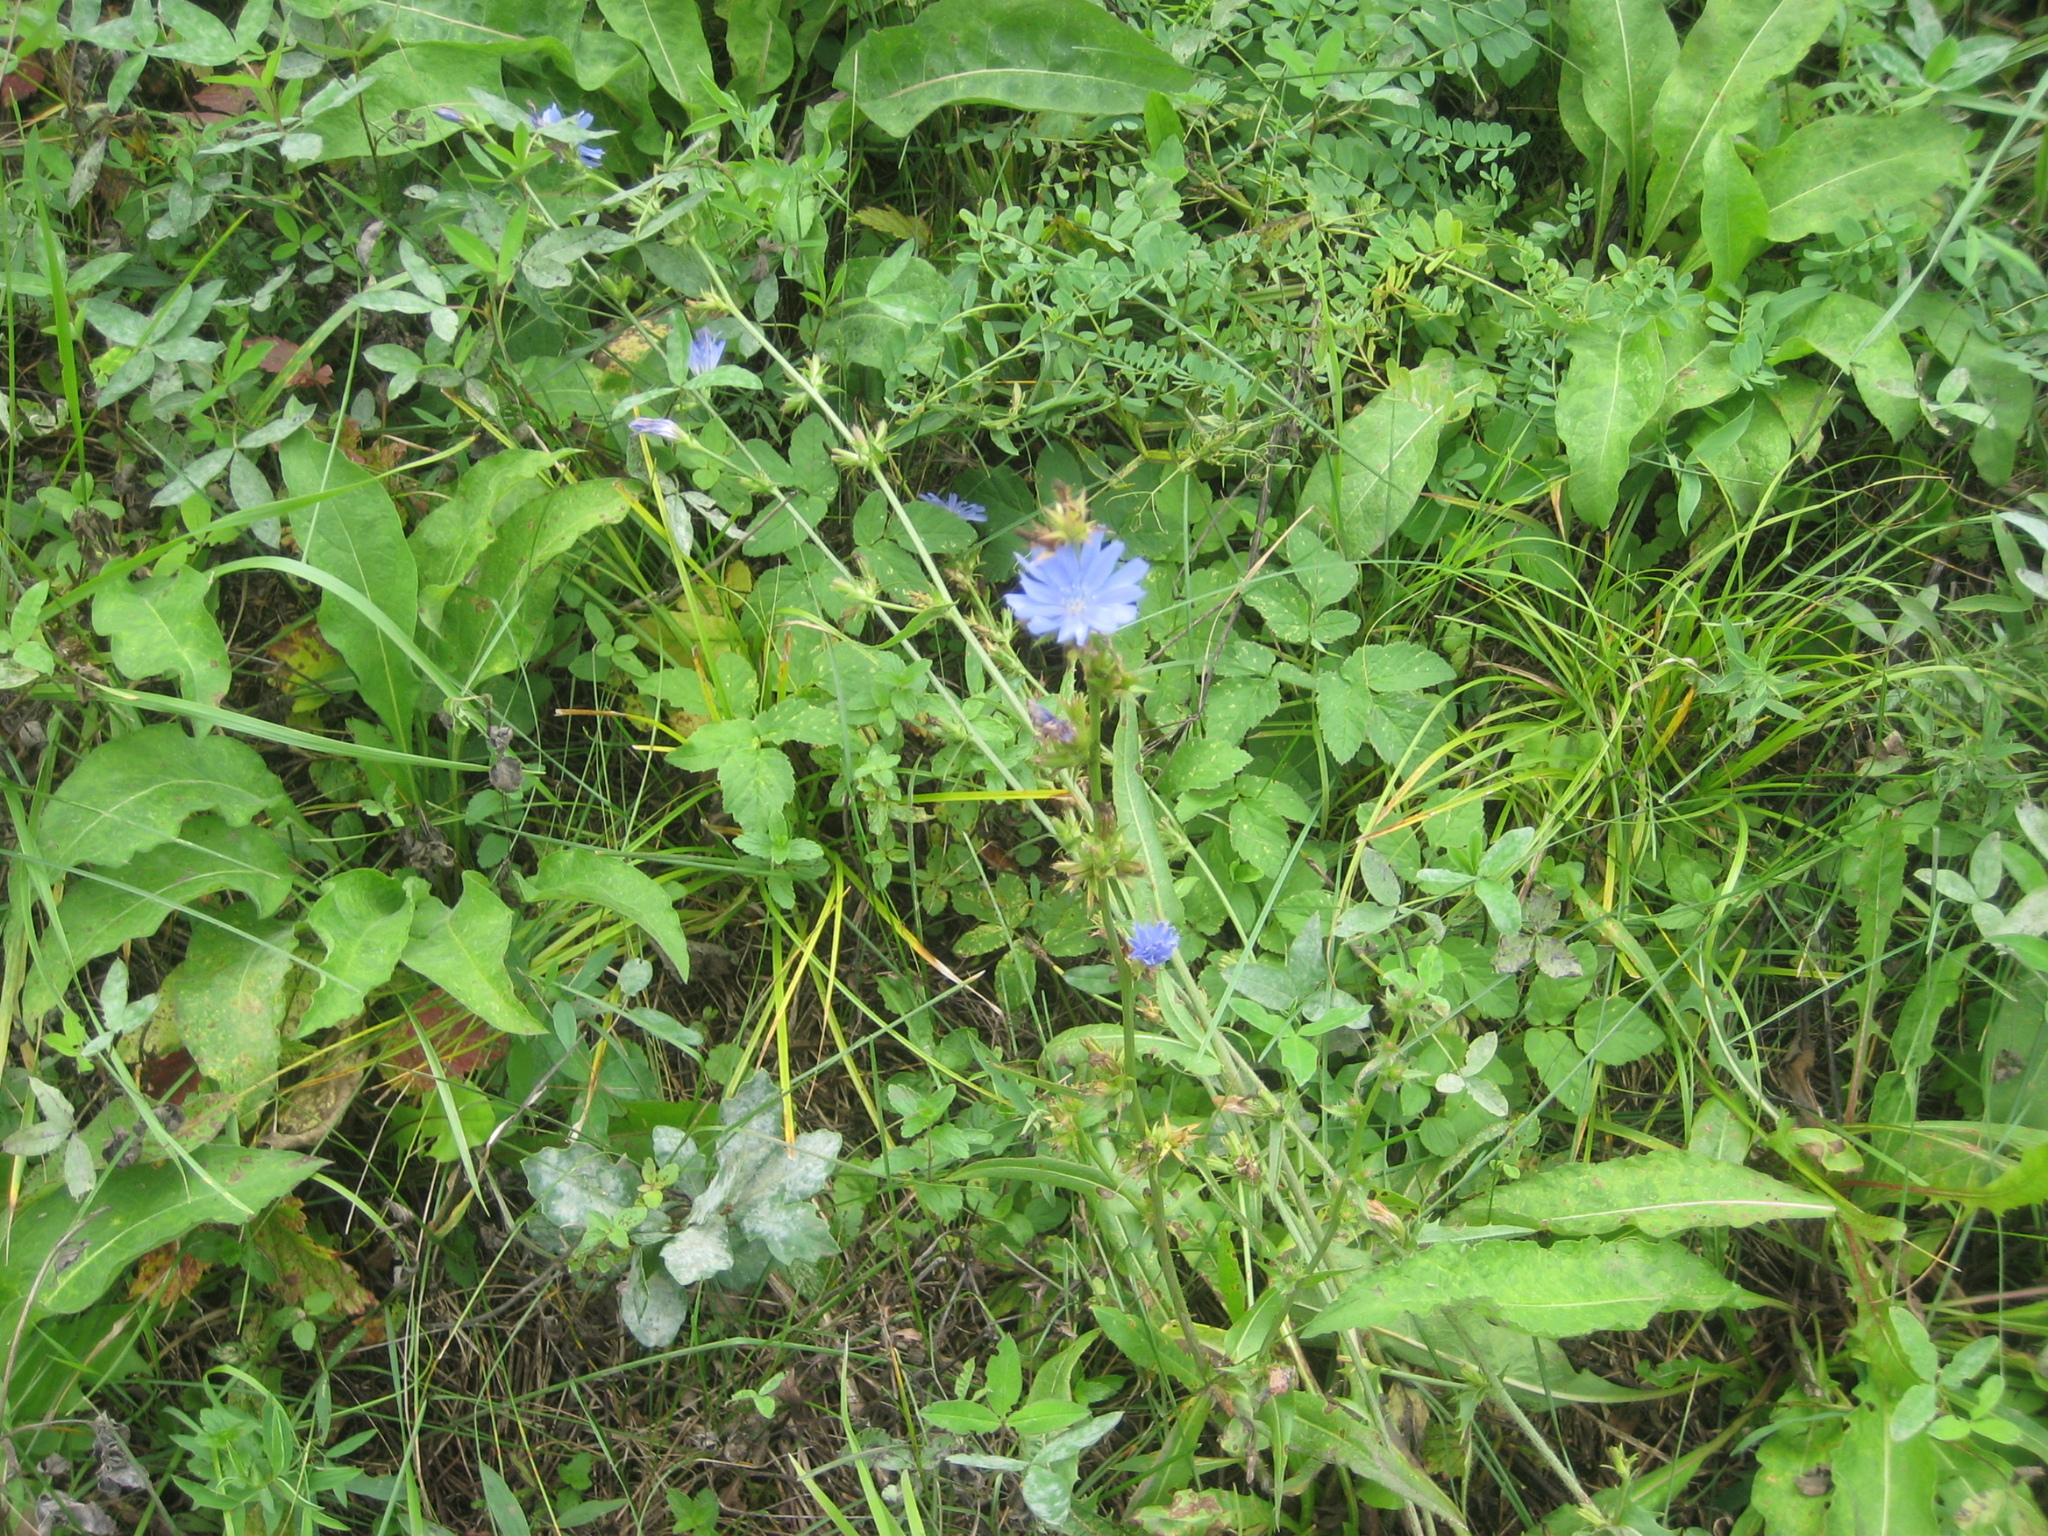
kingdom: Plantae
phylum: Tracheophyta
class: Magnoliopsida
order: Asterales
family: Asteraceae
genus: Cichorium
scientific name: Cichorium intybus
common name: Chicory
